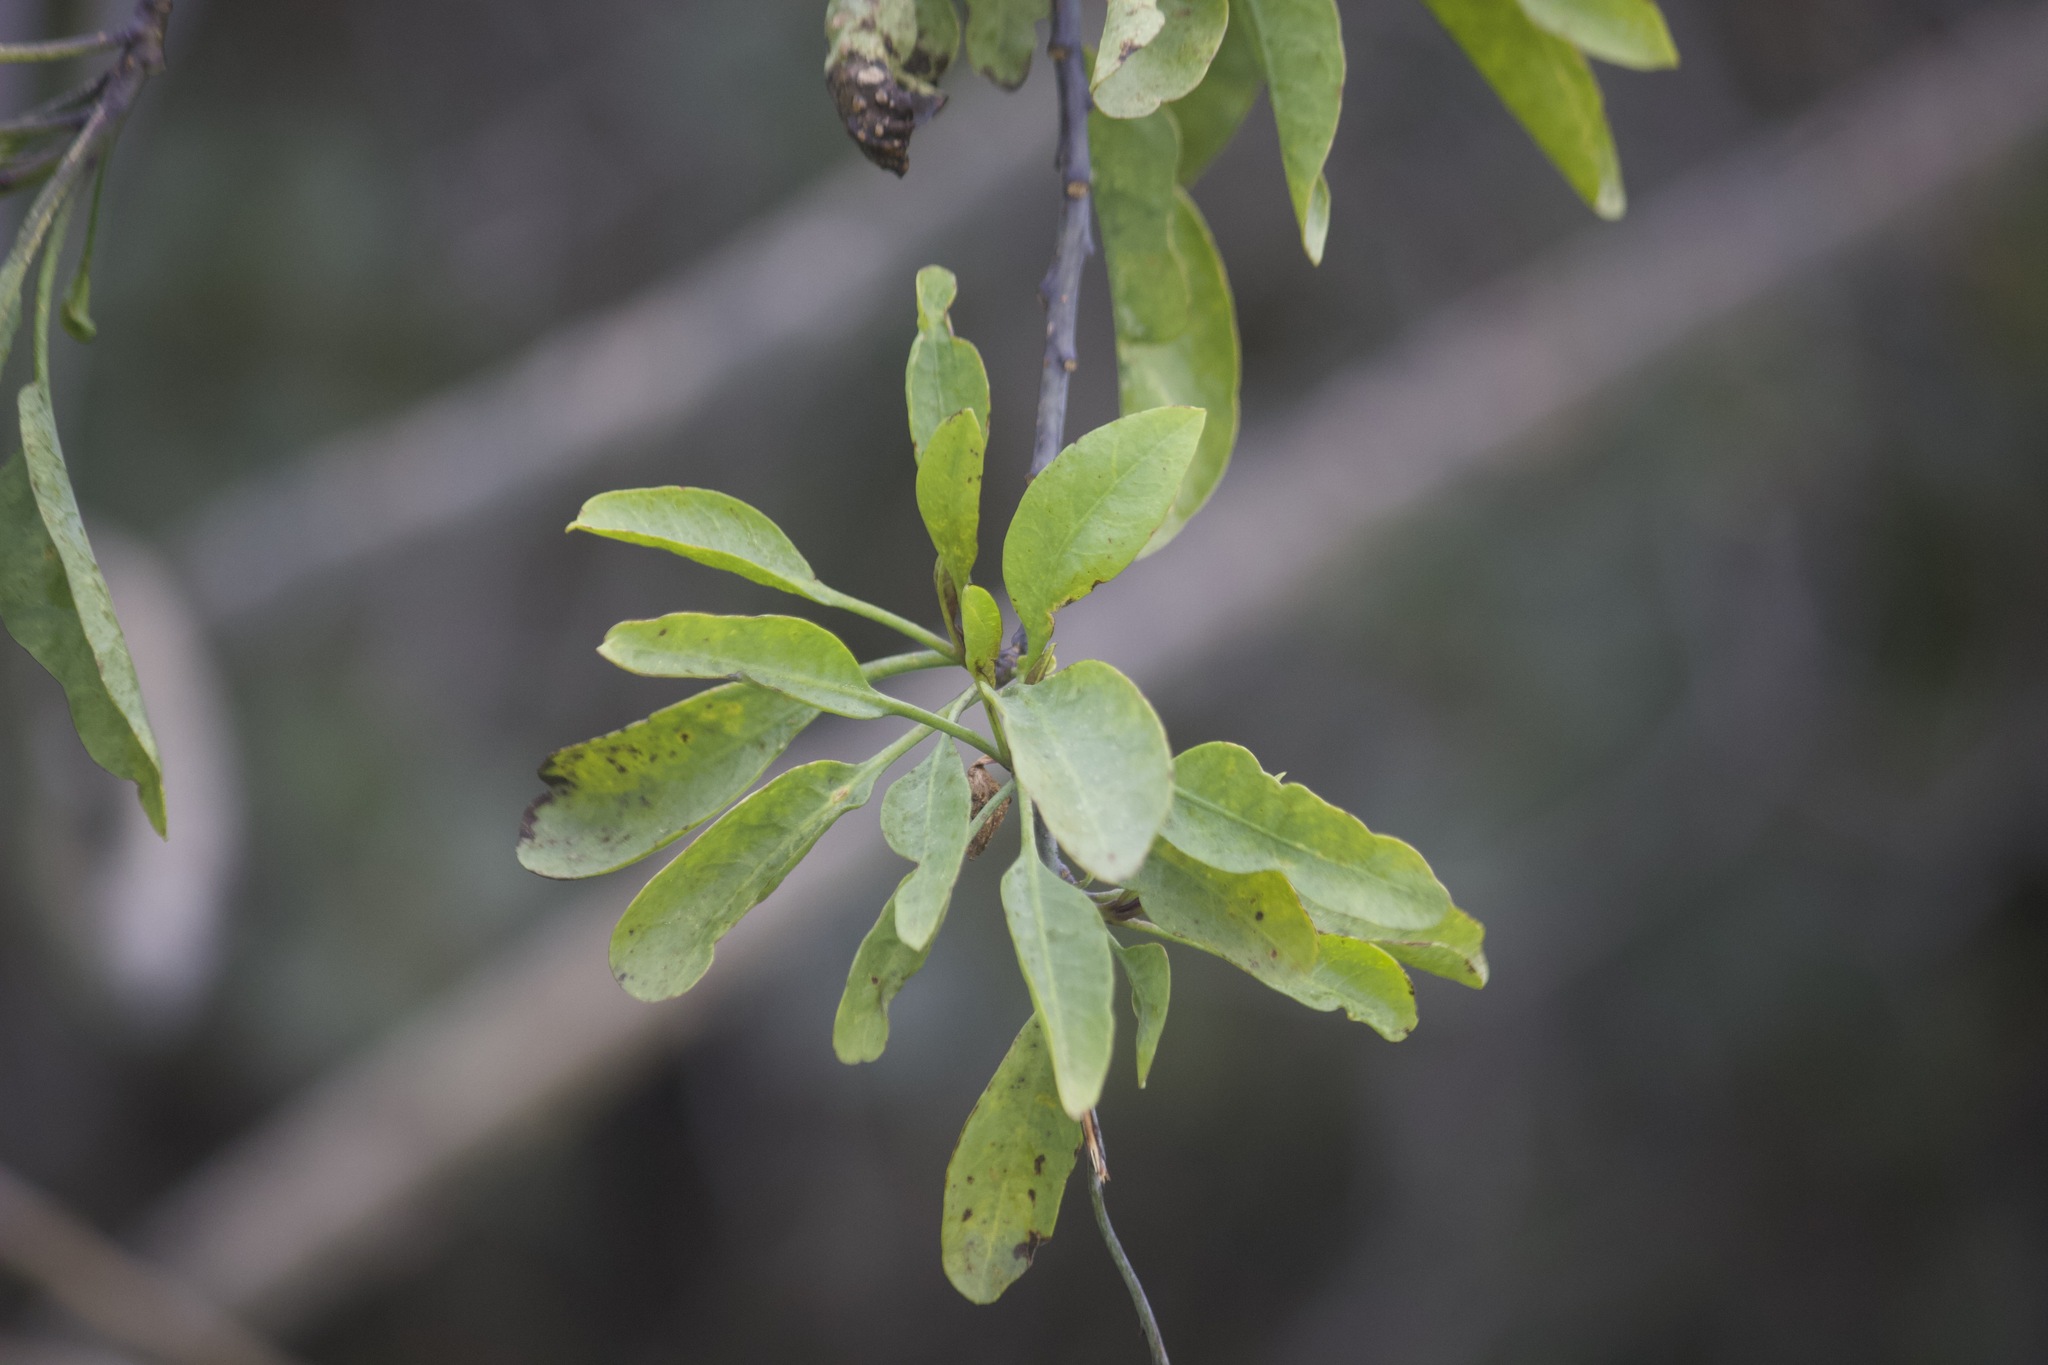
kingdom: Plantae
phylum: Tracheophyta
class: Magnoliopsida
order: Solanales
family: Solanaceae
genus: Nicotiana
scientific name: Nicotiana glauca
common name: Tree tobacco
